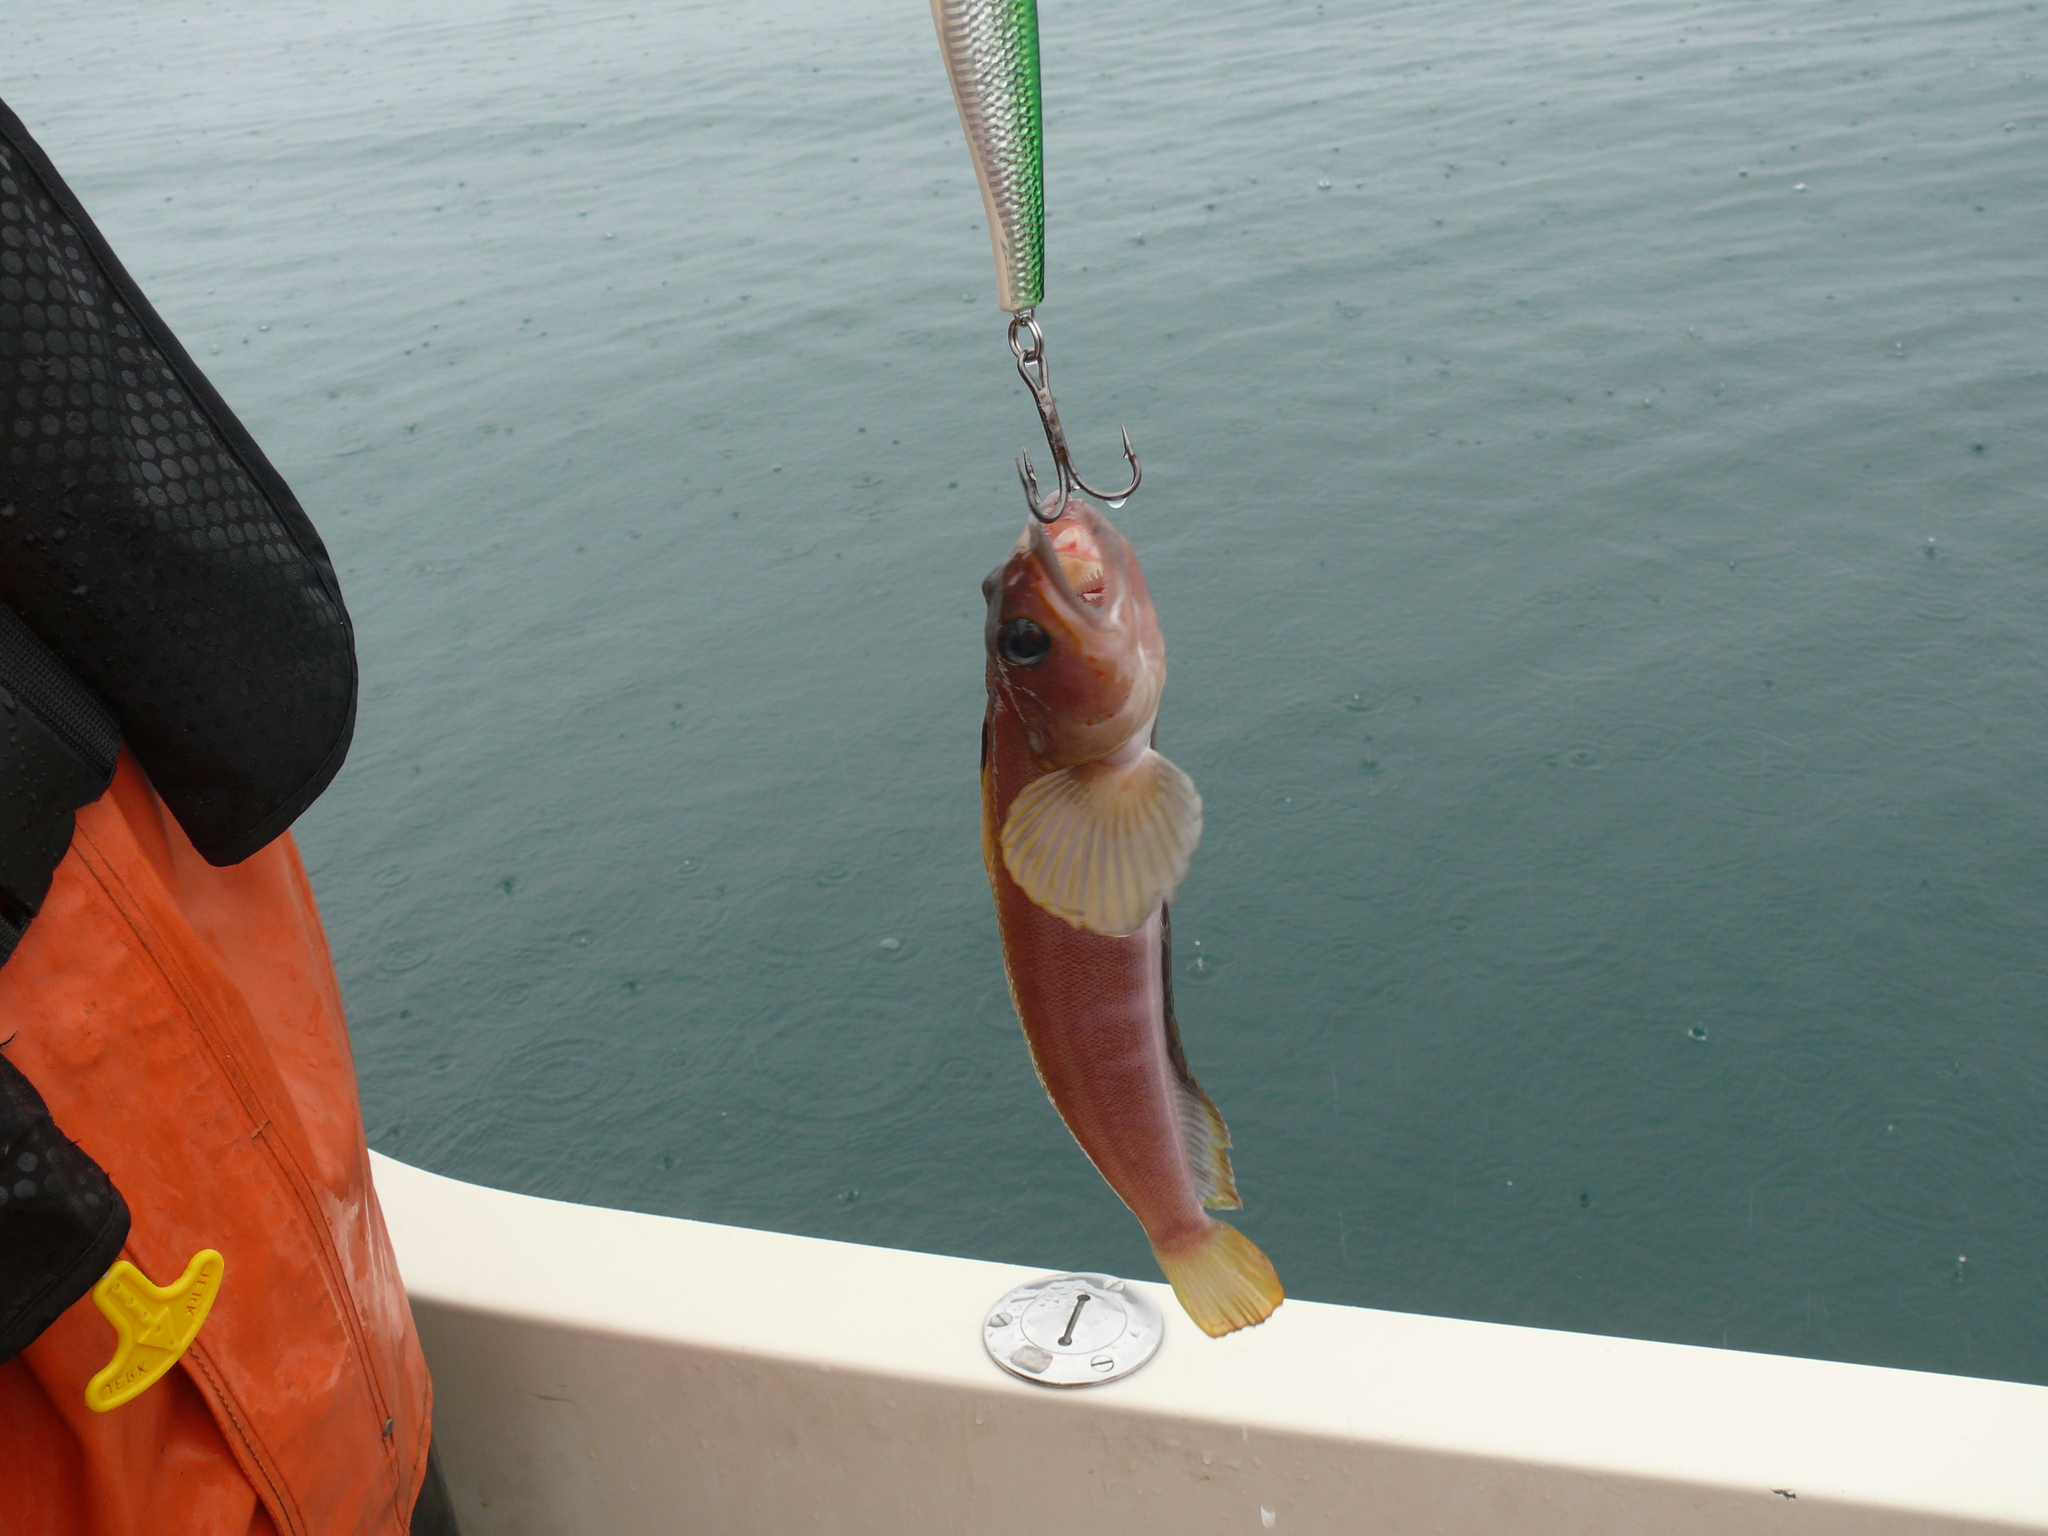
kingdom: Animalia
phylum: Chordata
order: Perciformes
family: Bathymasteridae
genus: Bathymaster
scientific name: Bathymaster signatus
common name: Searcher
